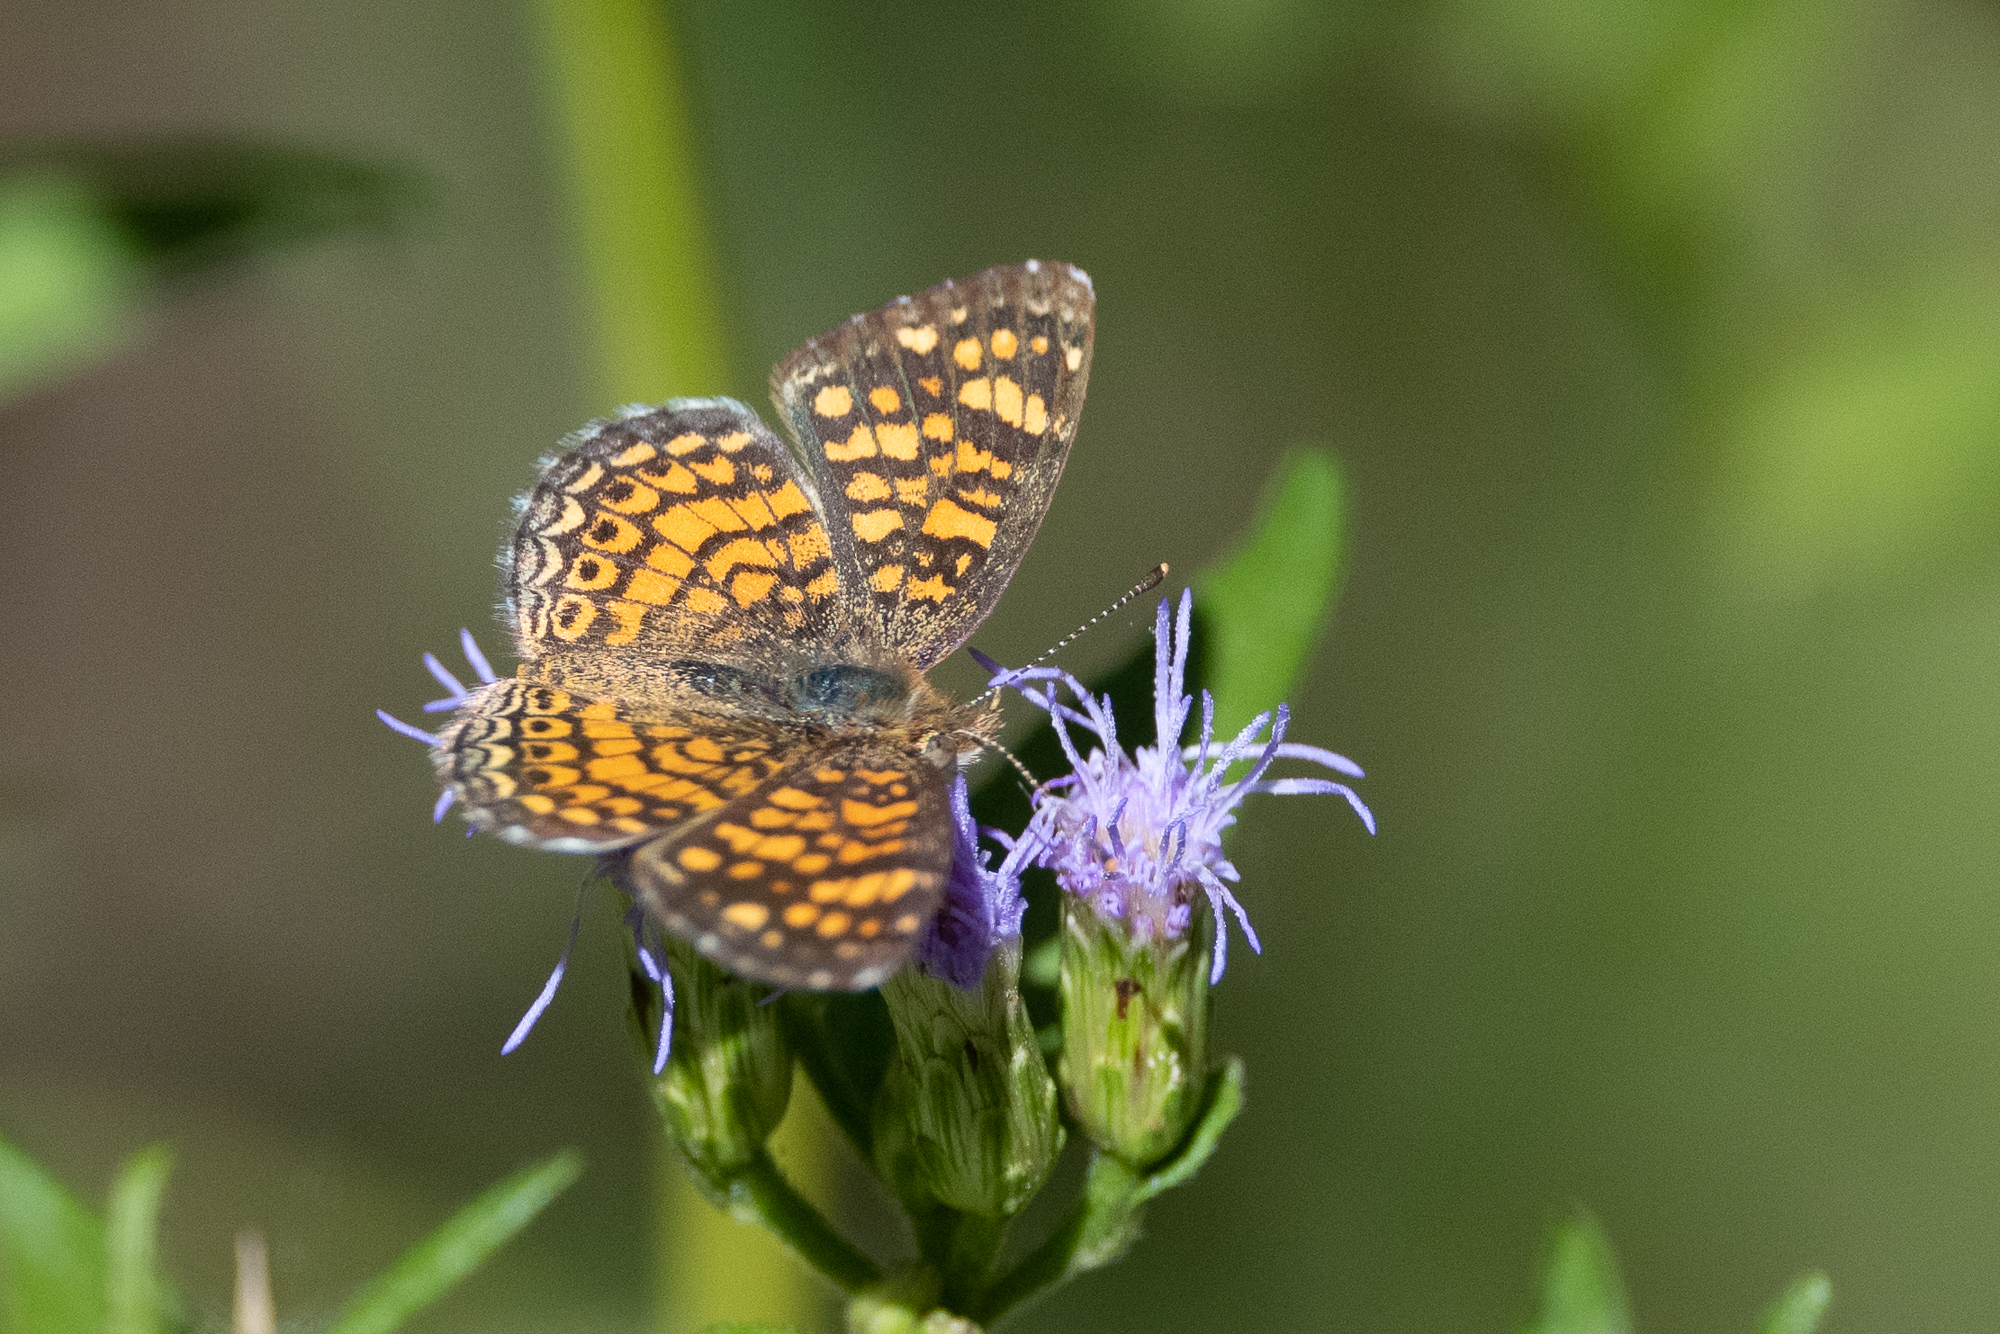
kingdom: Animalia
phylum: Arthropoda
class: Insecta
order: Lepidoptera
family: Nymphalidae
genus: Phyciodes
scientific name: Phyciodes vesta
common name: Vesta crescent
